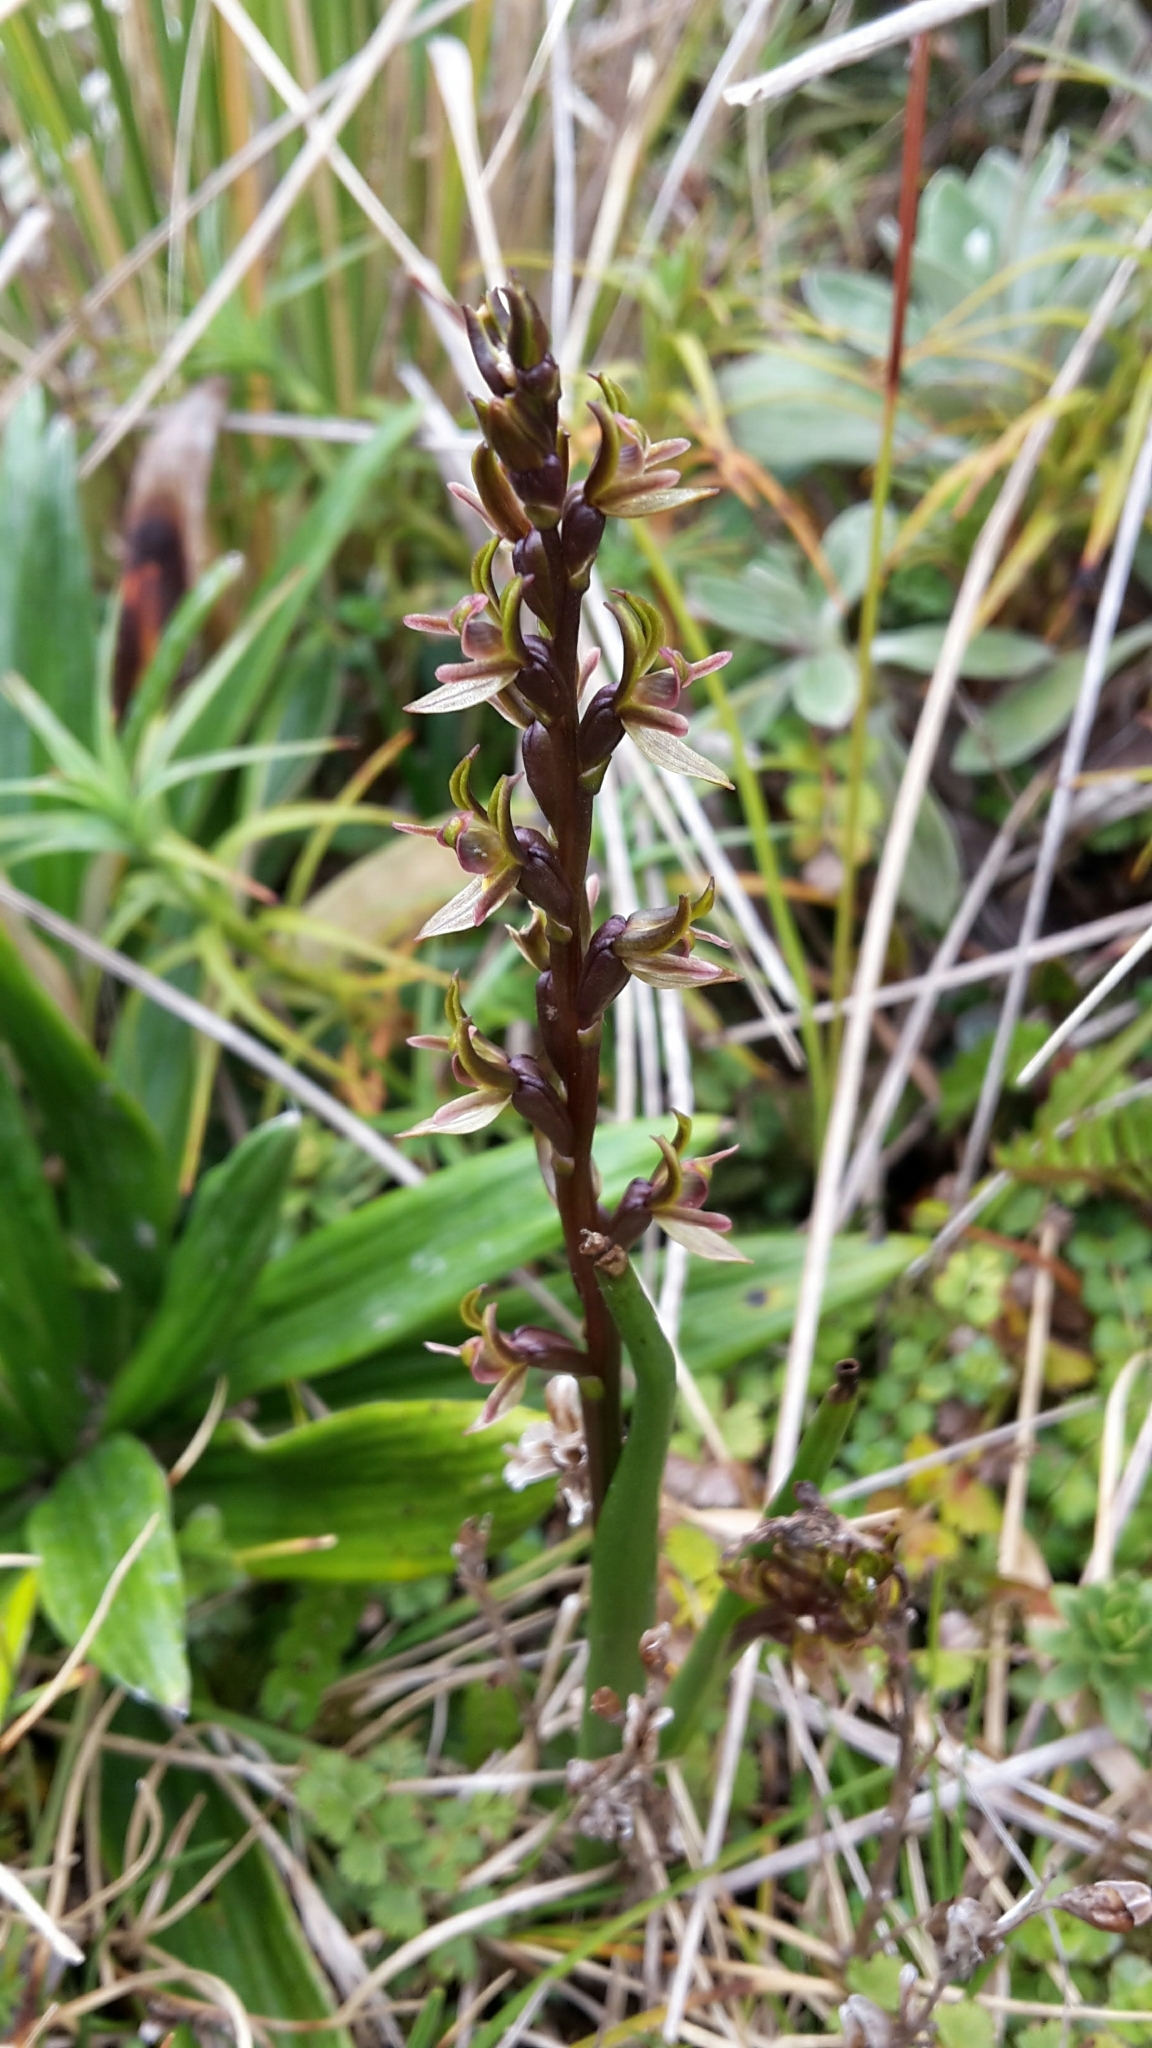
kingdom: Plantae
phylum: Tracheophyta
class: Liliopsida
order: Asparagales
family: Orchidaceae
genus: Prasophyllum
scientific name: Prasophyllum colensoi
